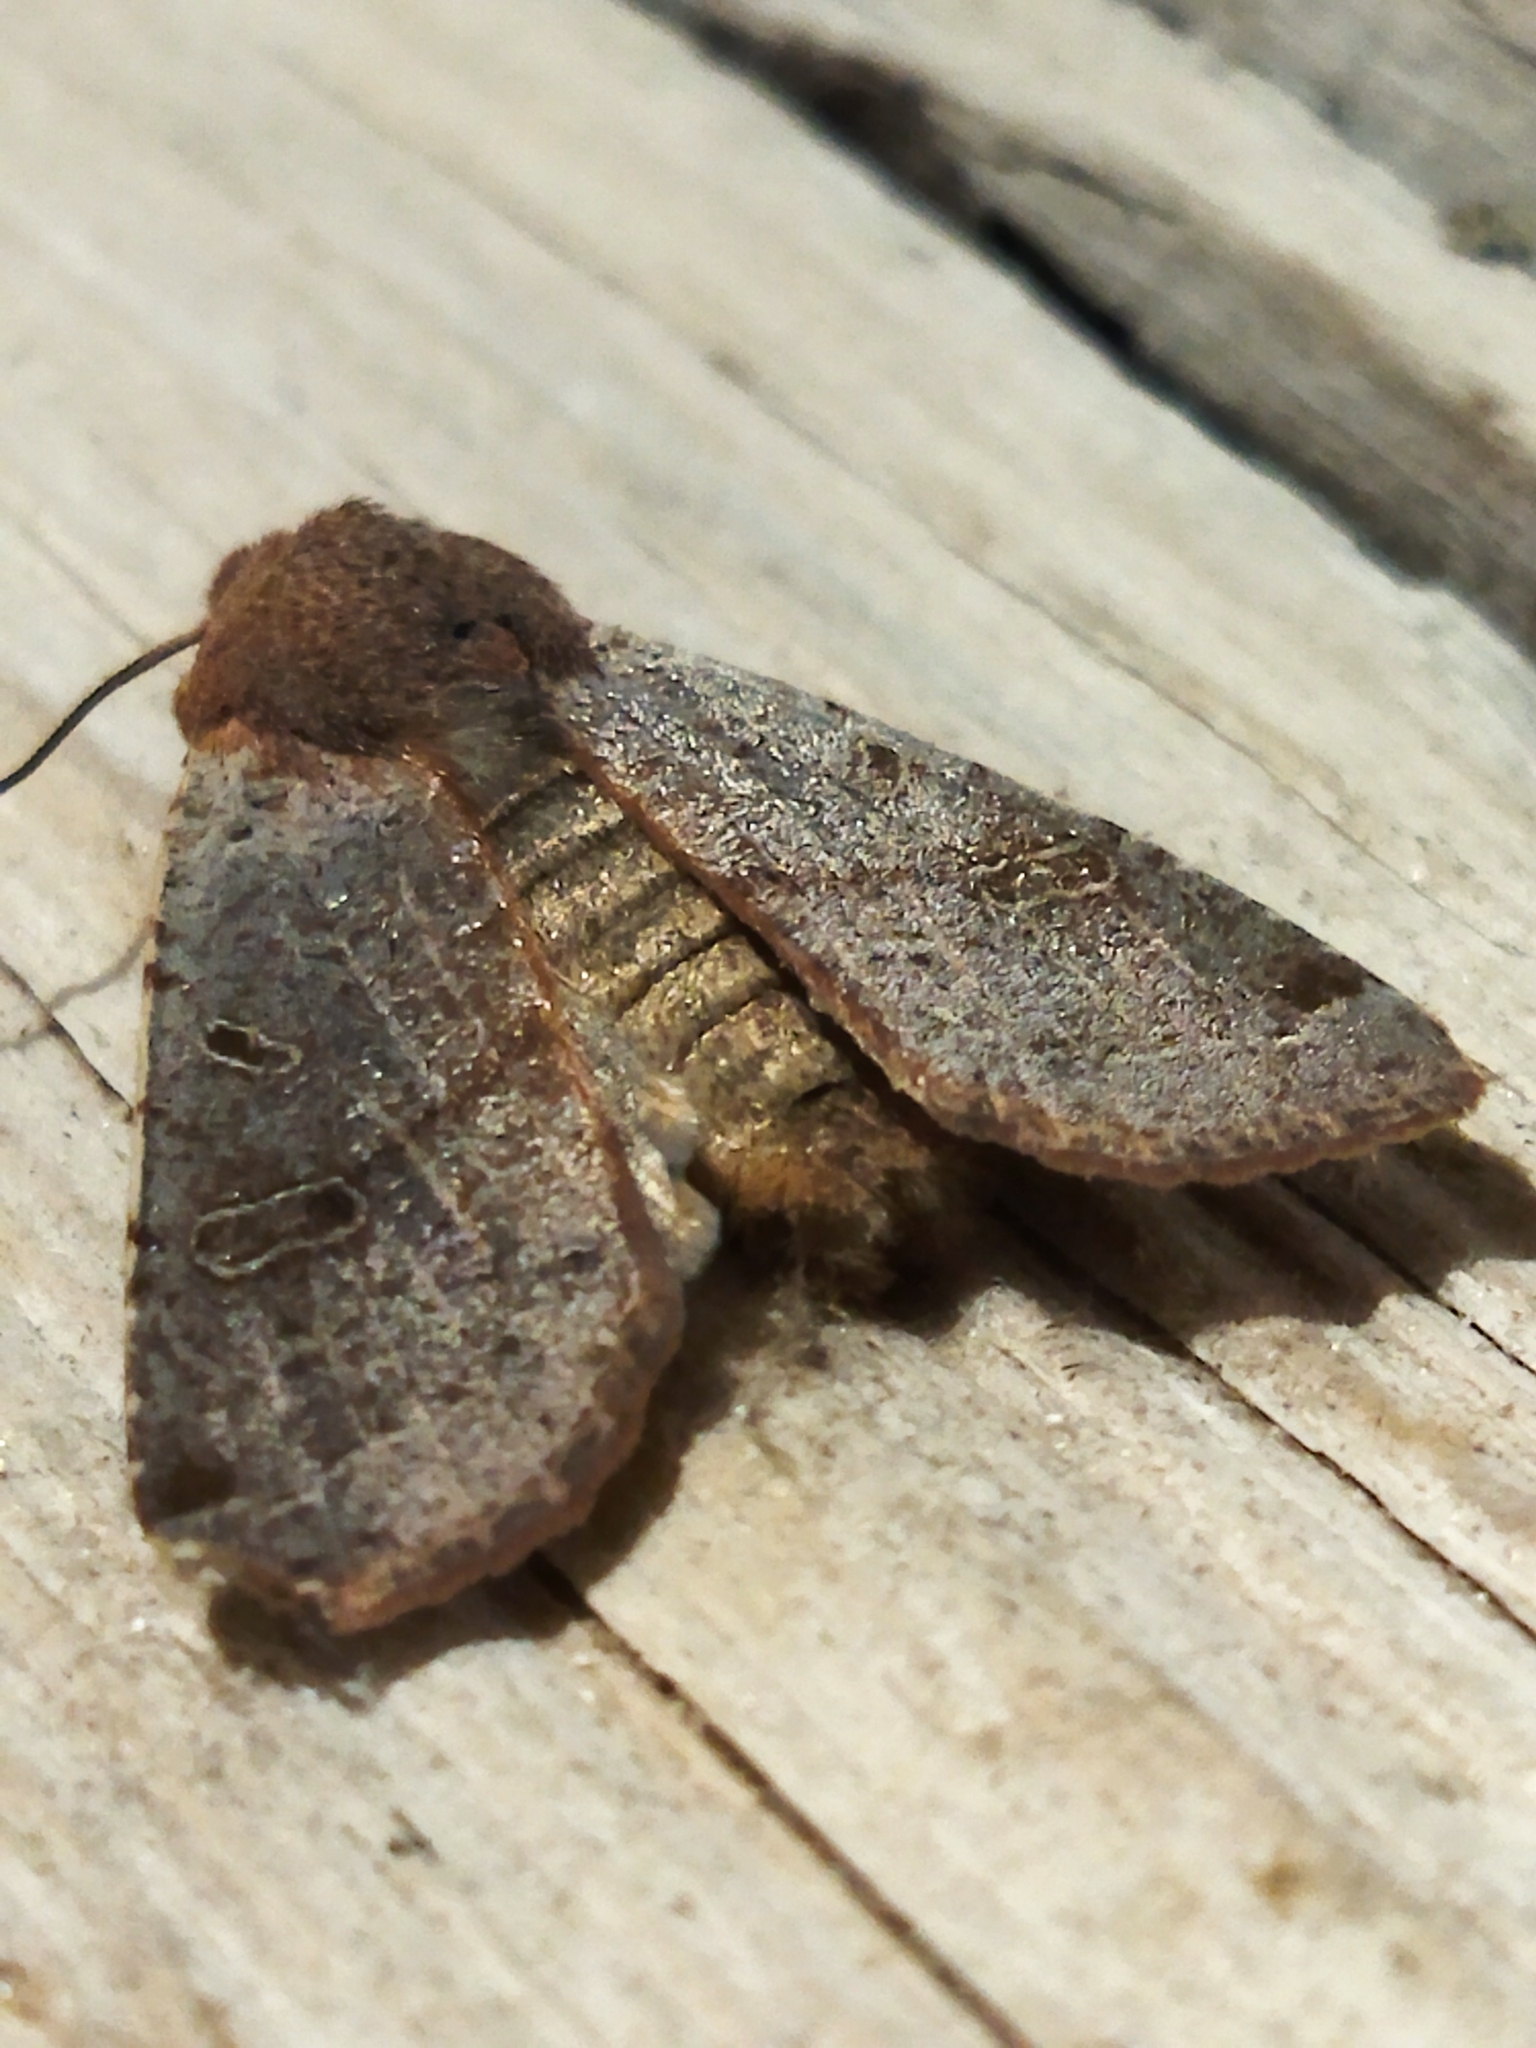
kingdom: Animalia
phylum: Arthropoda
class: Insecta
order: Lepidoptera
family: Noctuidae
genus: Agrochola
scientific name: Agrochola lychnidis
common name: Beaded chestnut
